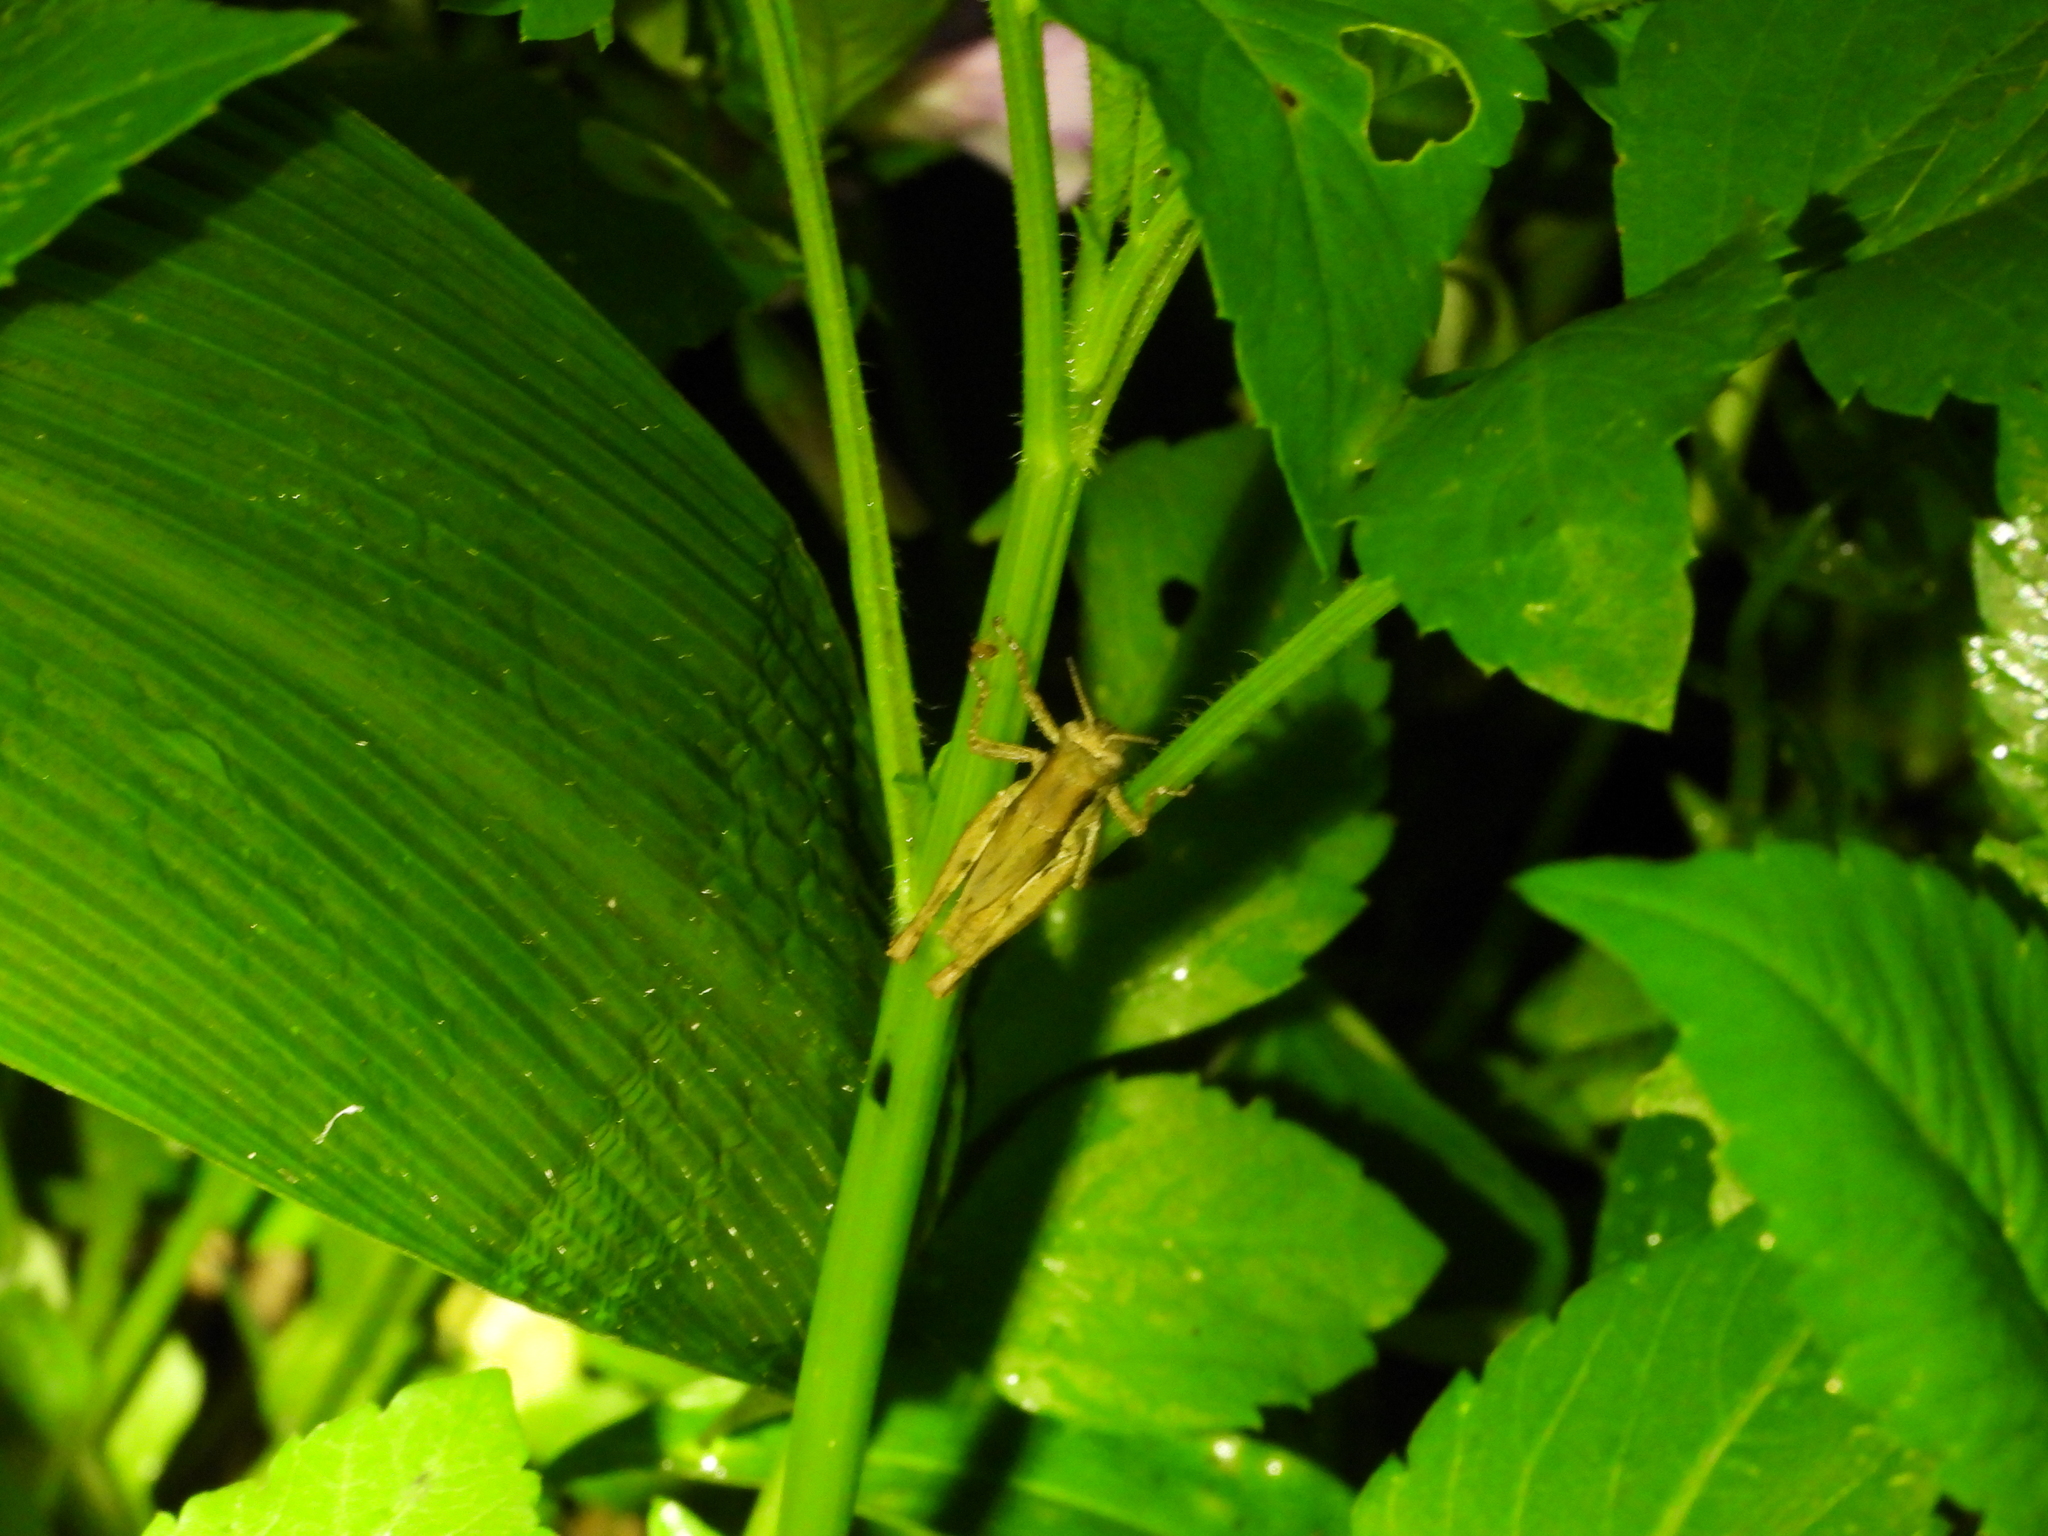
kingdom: Animalia
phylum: Arthropoda
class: Insecta
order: Orthoptera
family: Acrididae
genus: Pseudoxya
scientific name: Pseudoxya diminuta
